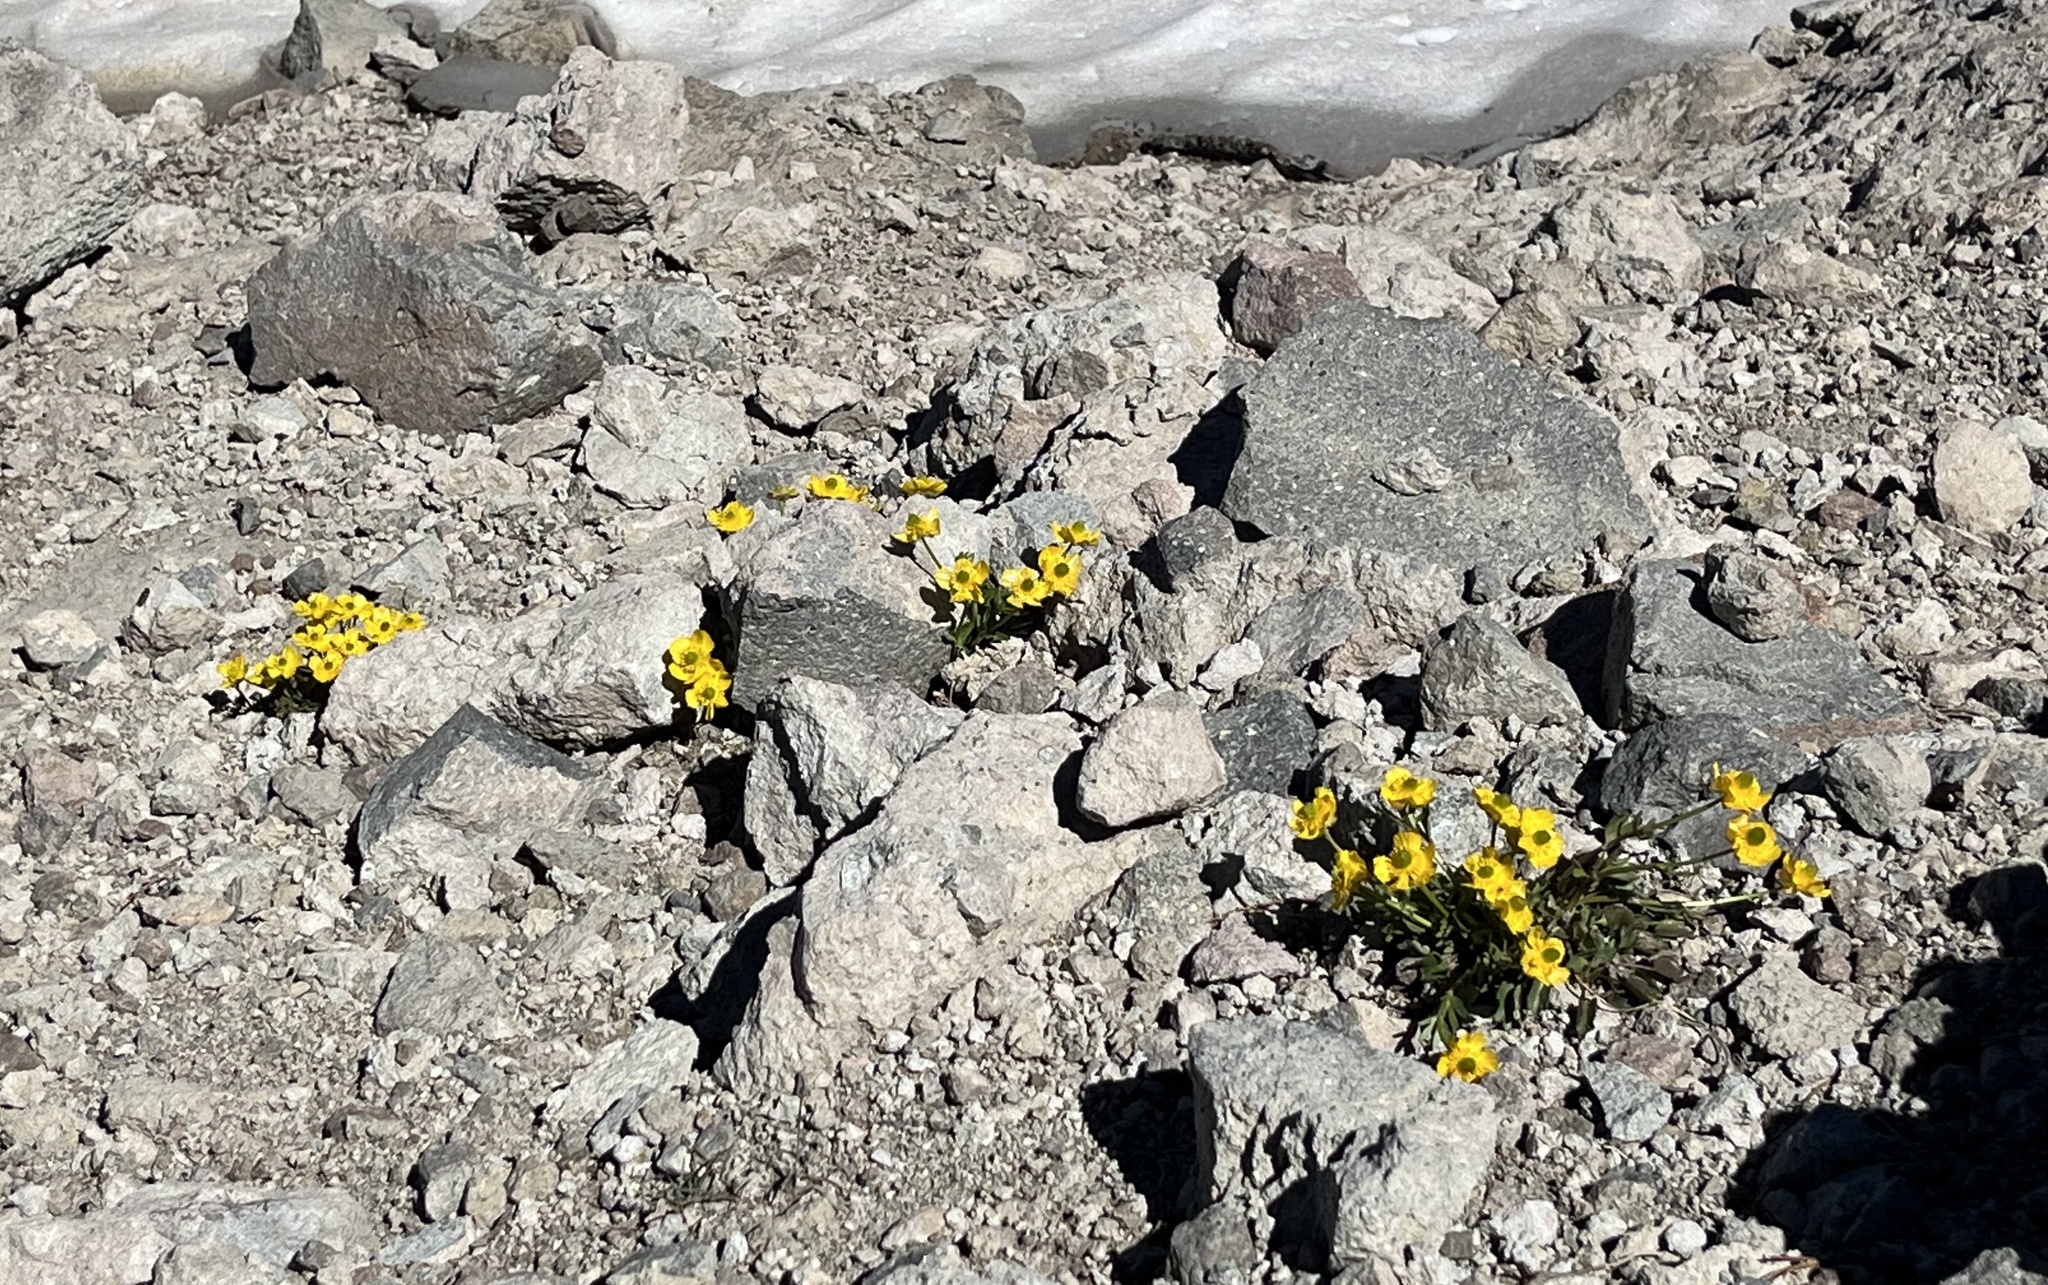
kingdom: Plantae
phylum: Tracheophyta
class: Magnoliopsida
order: Ranunculales
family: Ranunculaceae
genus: Ranunculus
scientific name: Ranunculus eschscholtzii
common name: Eschscholtz's buttercup
